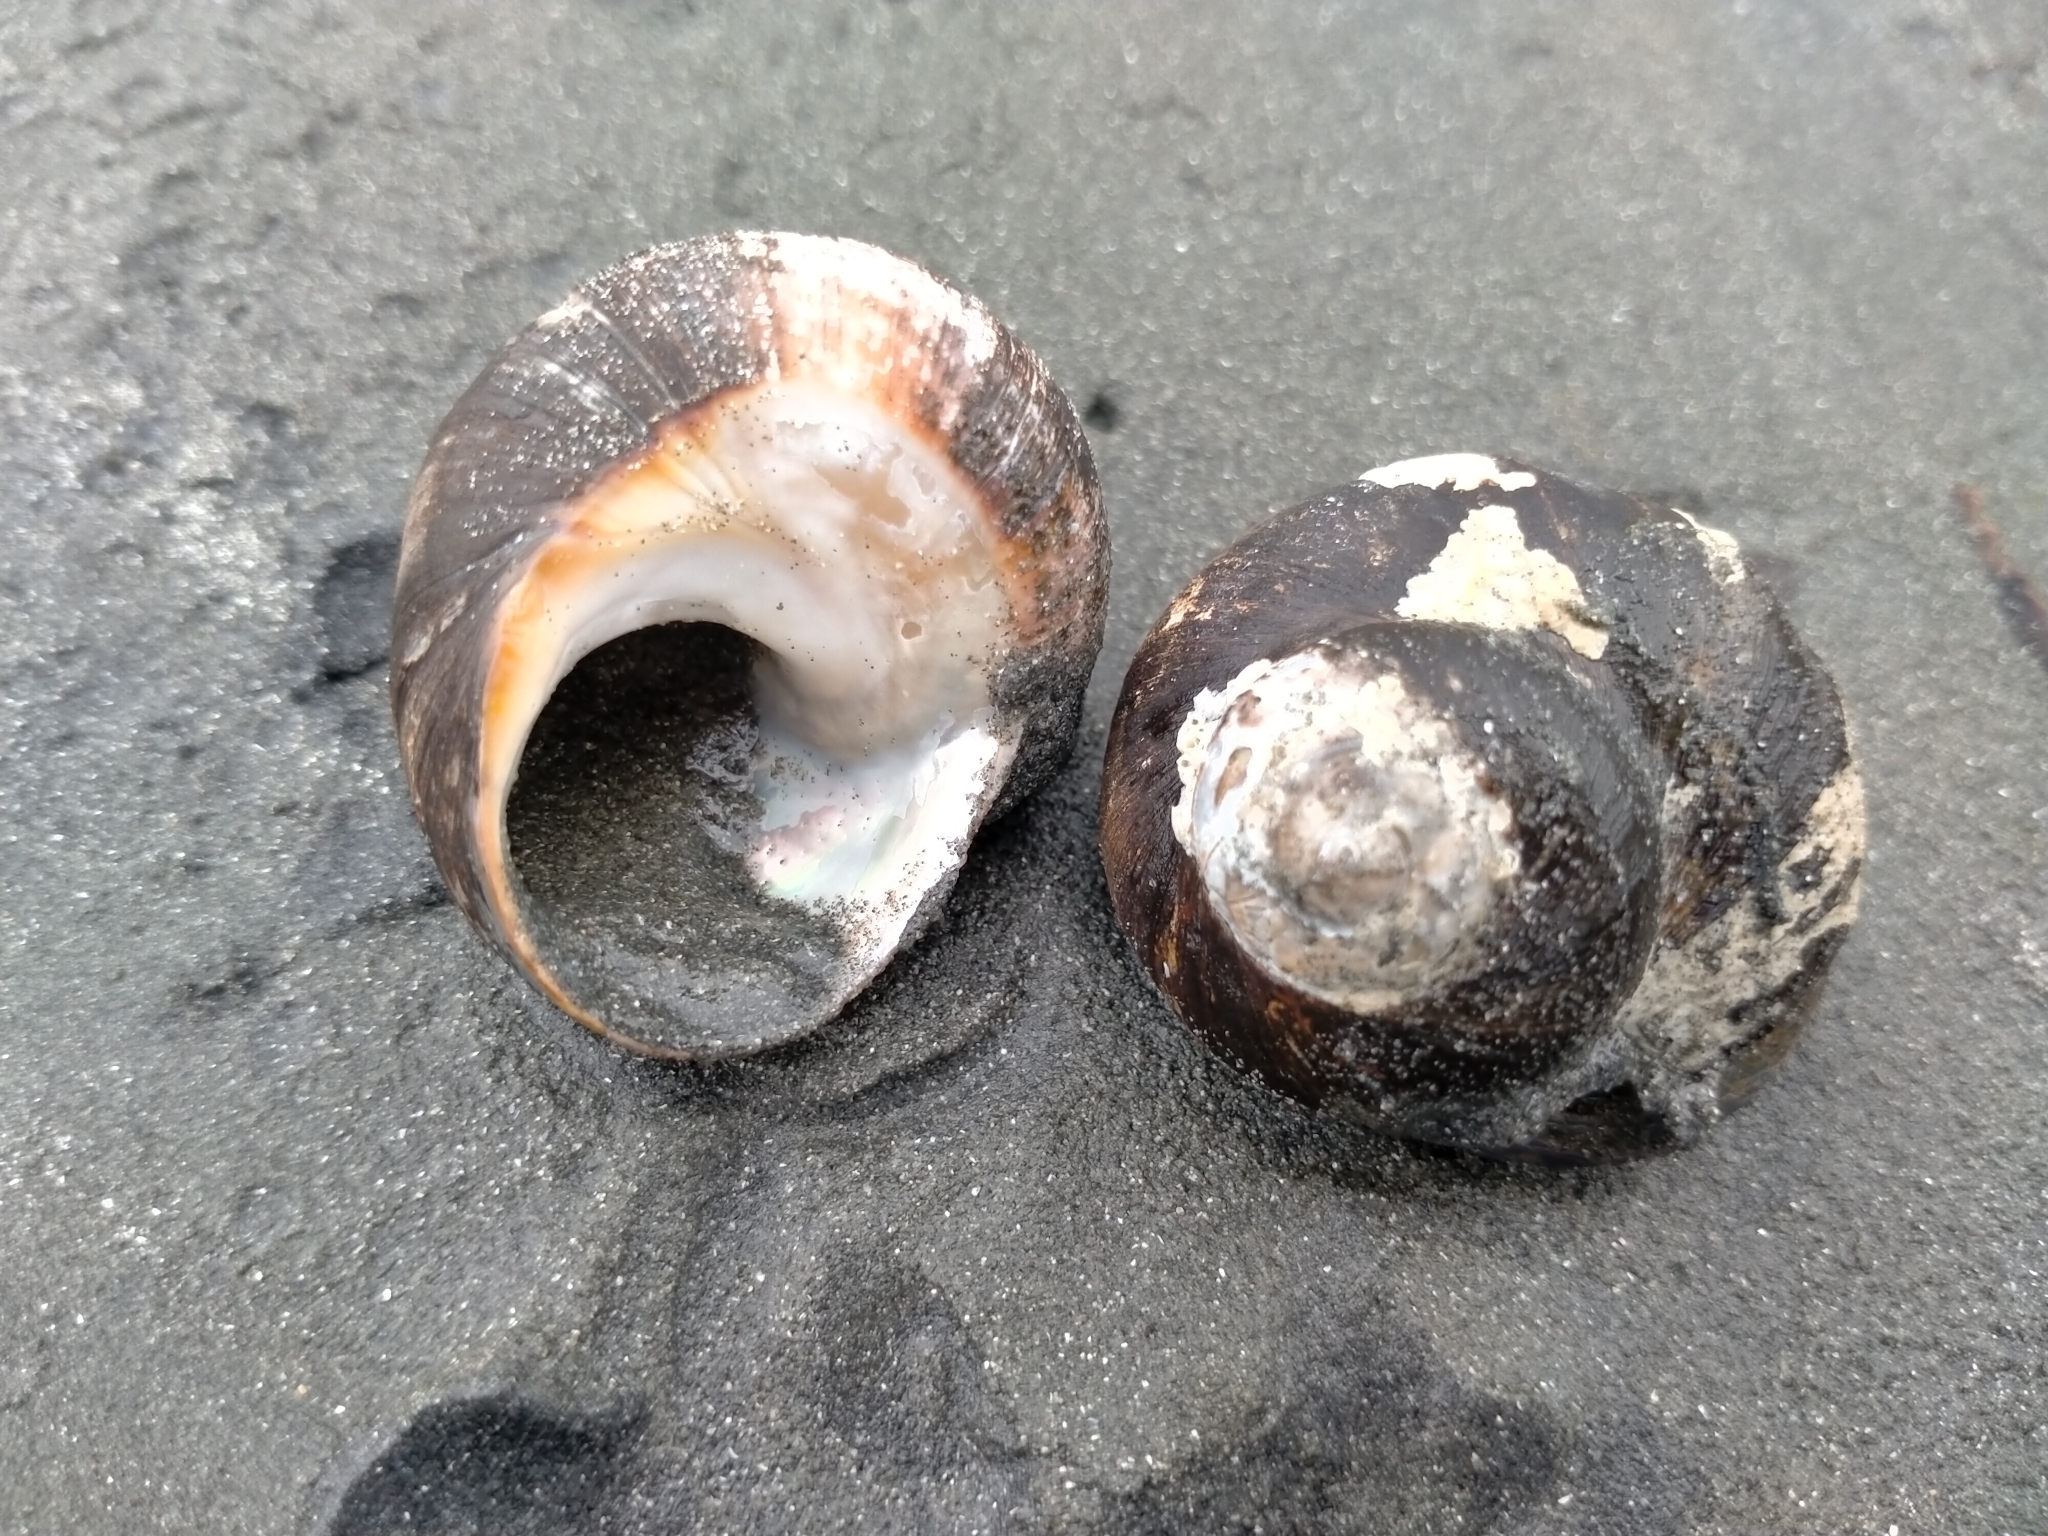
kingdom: Animalia
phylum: Mollusca
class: Gastropoda
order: Trochida
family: Turbinidae
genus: Lunella
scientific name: Lunella smaragda
